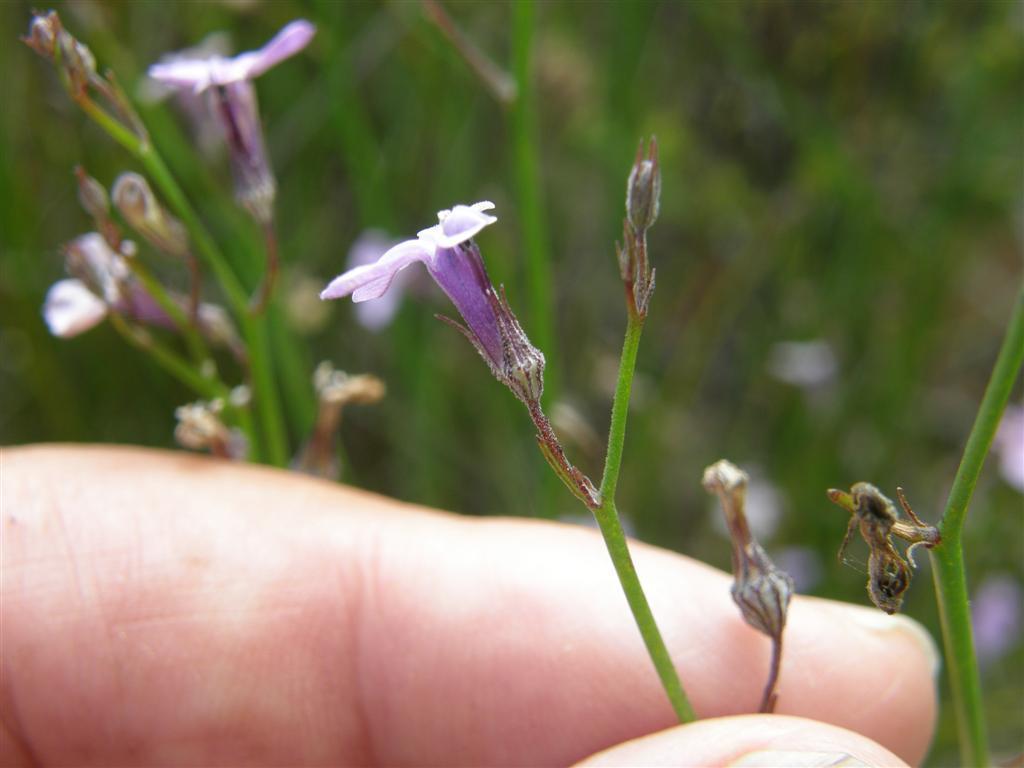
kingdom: Plantae
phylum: Tracheophyta
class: Magnoliopsida
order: Asterales
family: Campanulaceae
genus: Lobelia
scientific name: Lobelia linearis
